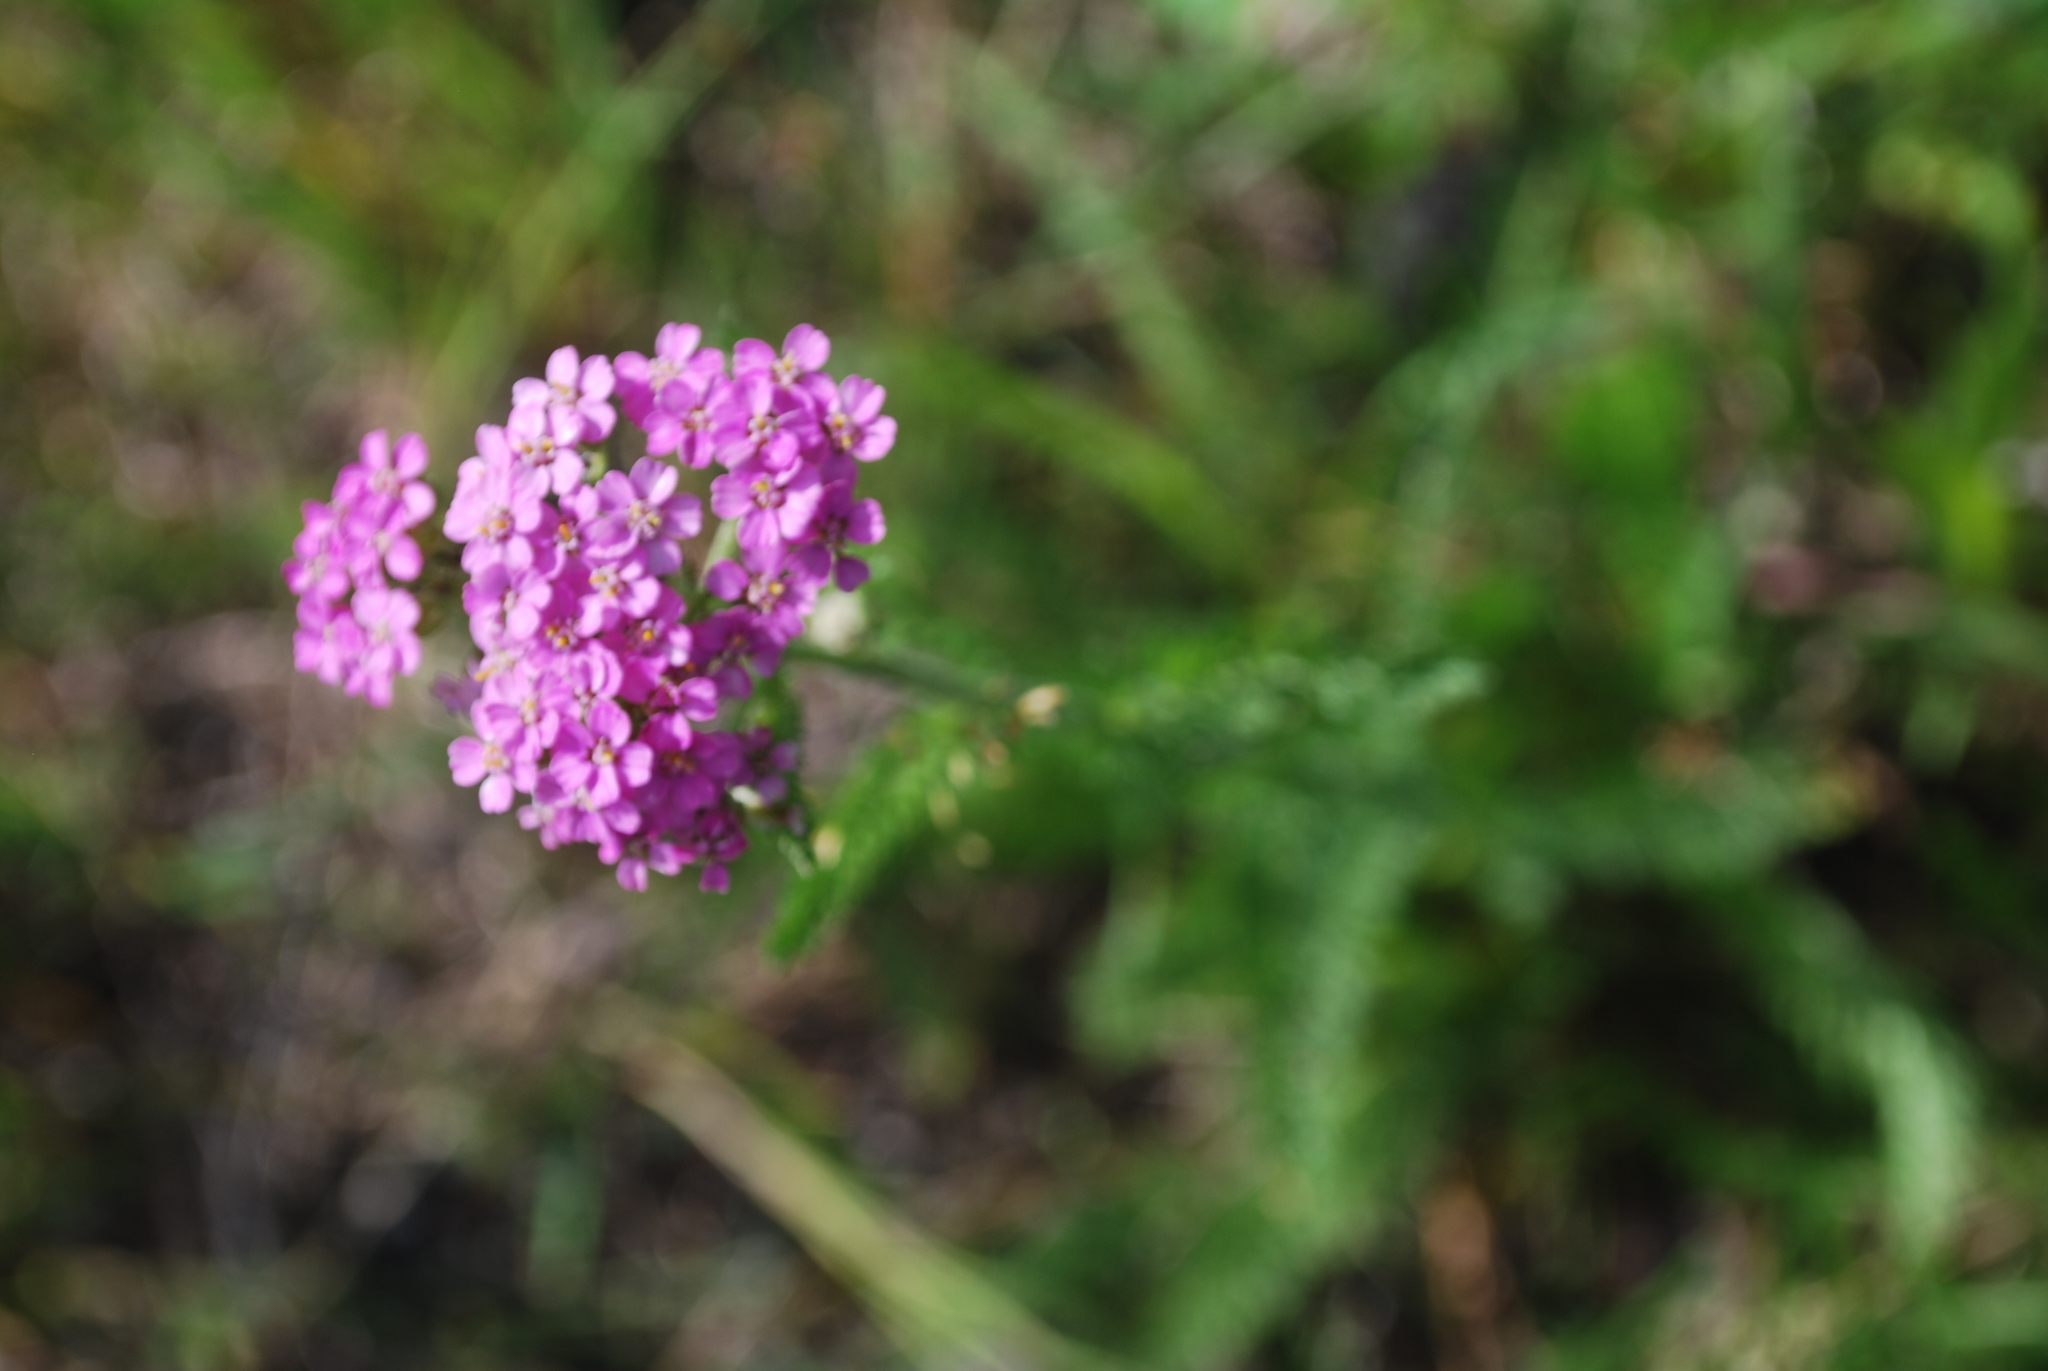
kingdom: Plantae
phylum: Tracheophyta
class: Magnoliopsida
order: Asterales
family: Asteraceae
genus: Achillea
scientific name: Achillea millefolium
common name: Yarrow
